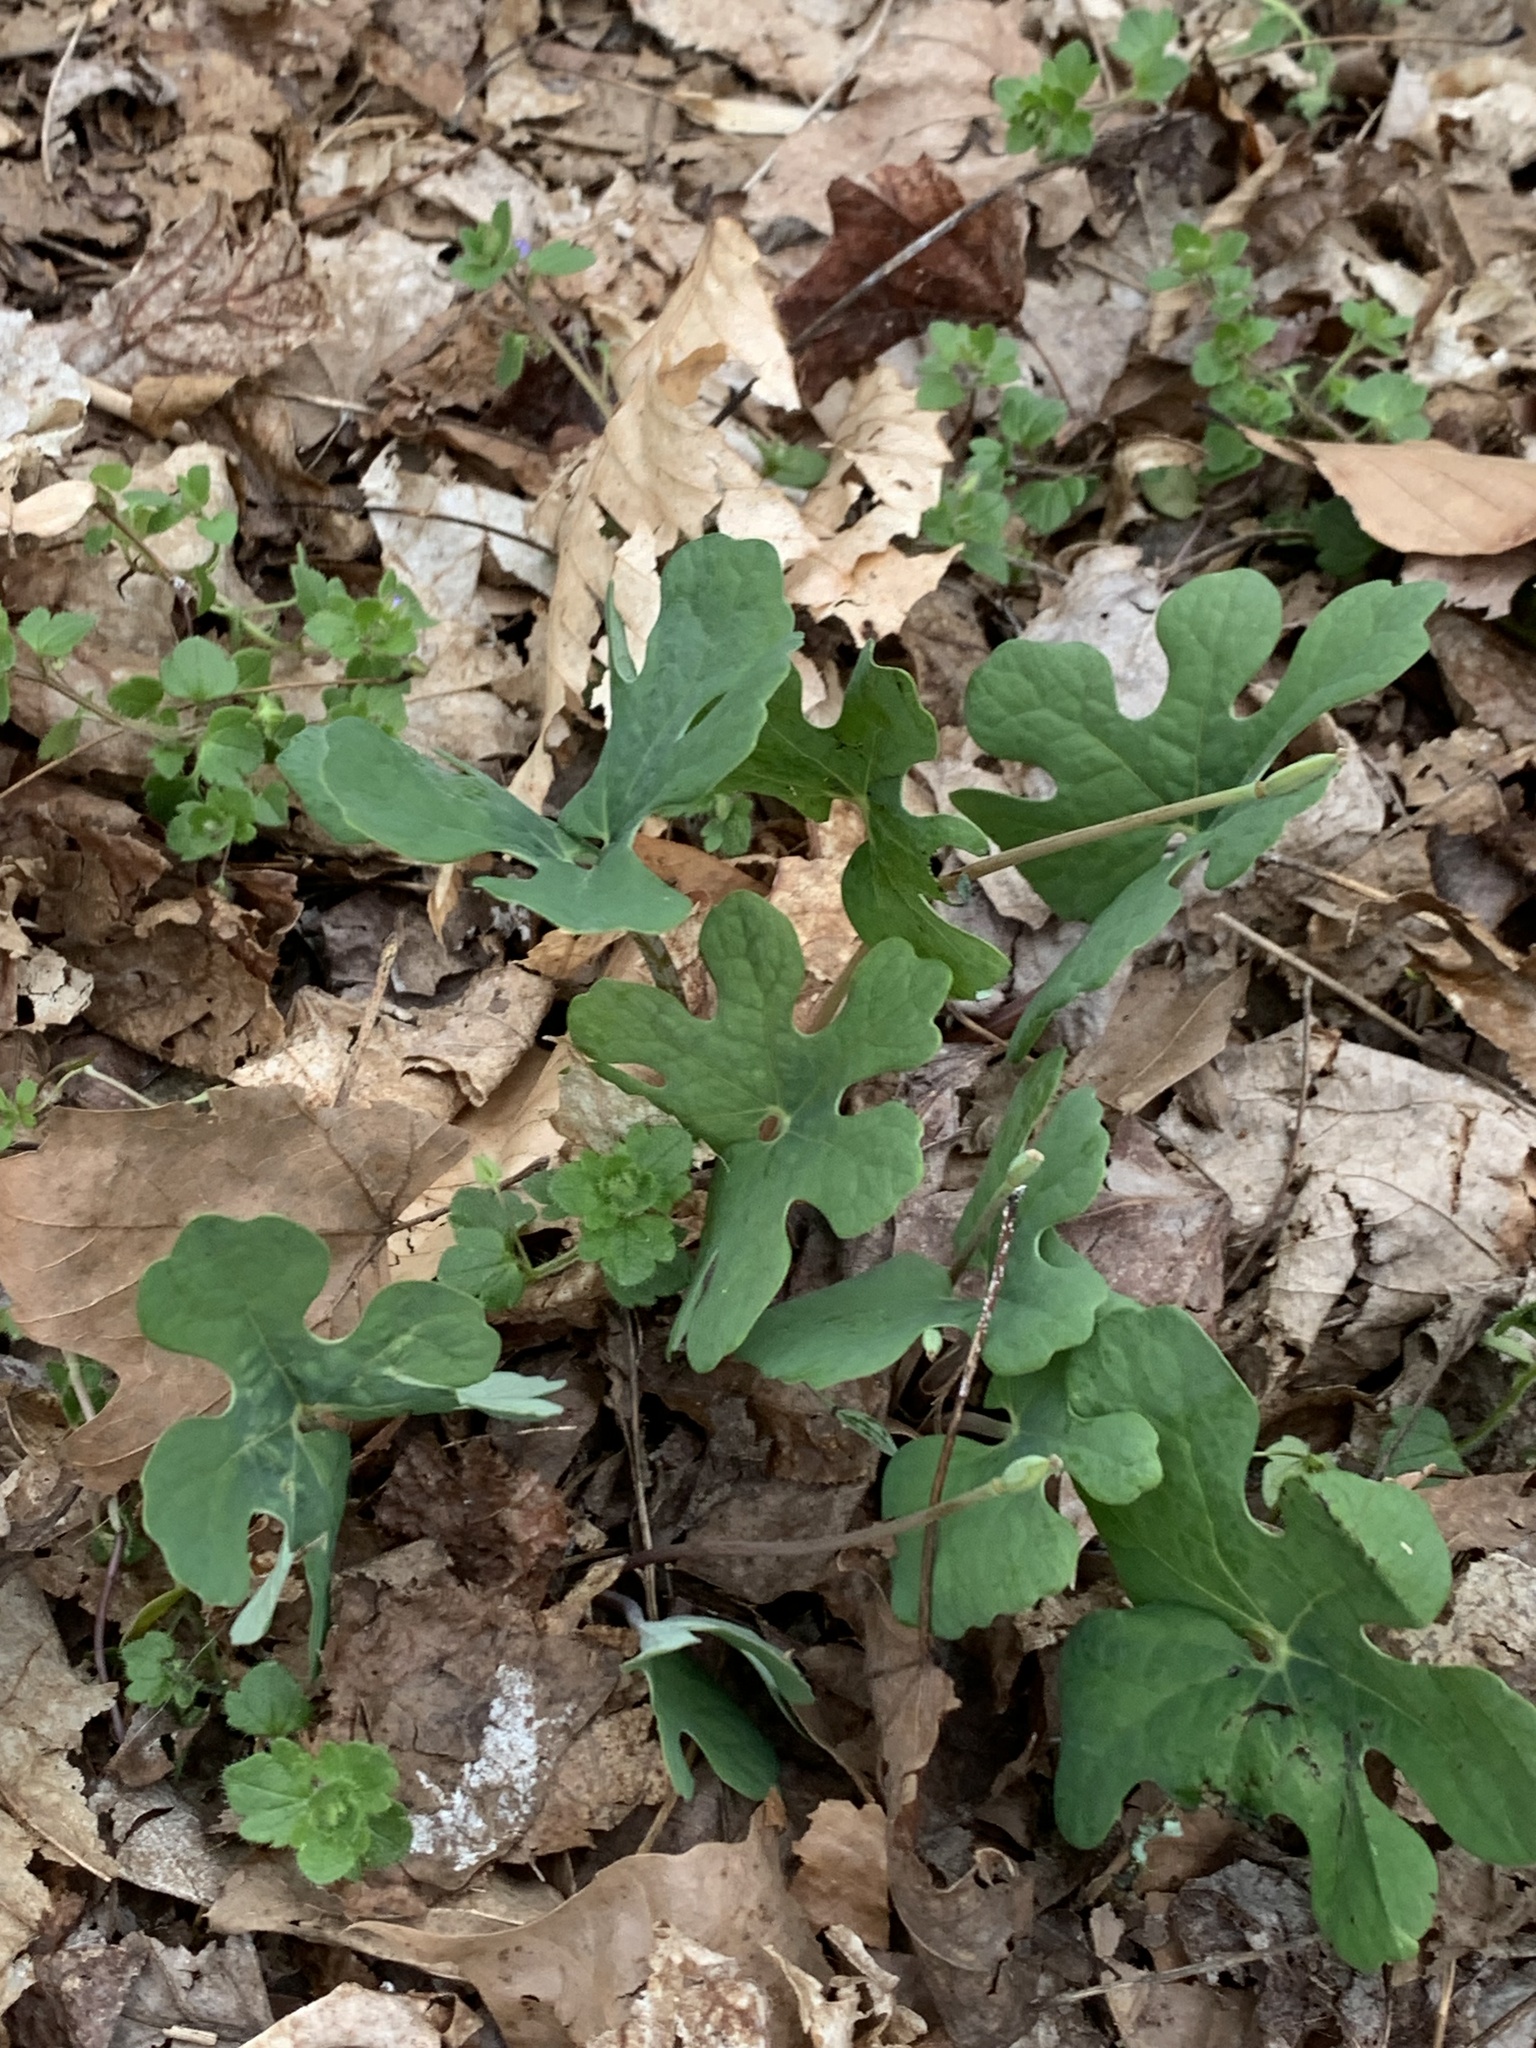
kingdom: Plantae
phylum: Tracheophyta
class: Magnoliopsida
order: Ranunculales
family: Papaveraceae
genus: Sanguinaria
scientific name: Sanguinaria canadensis
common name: Bloodroot
